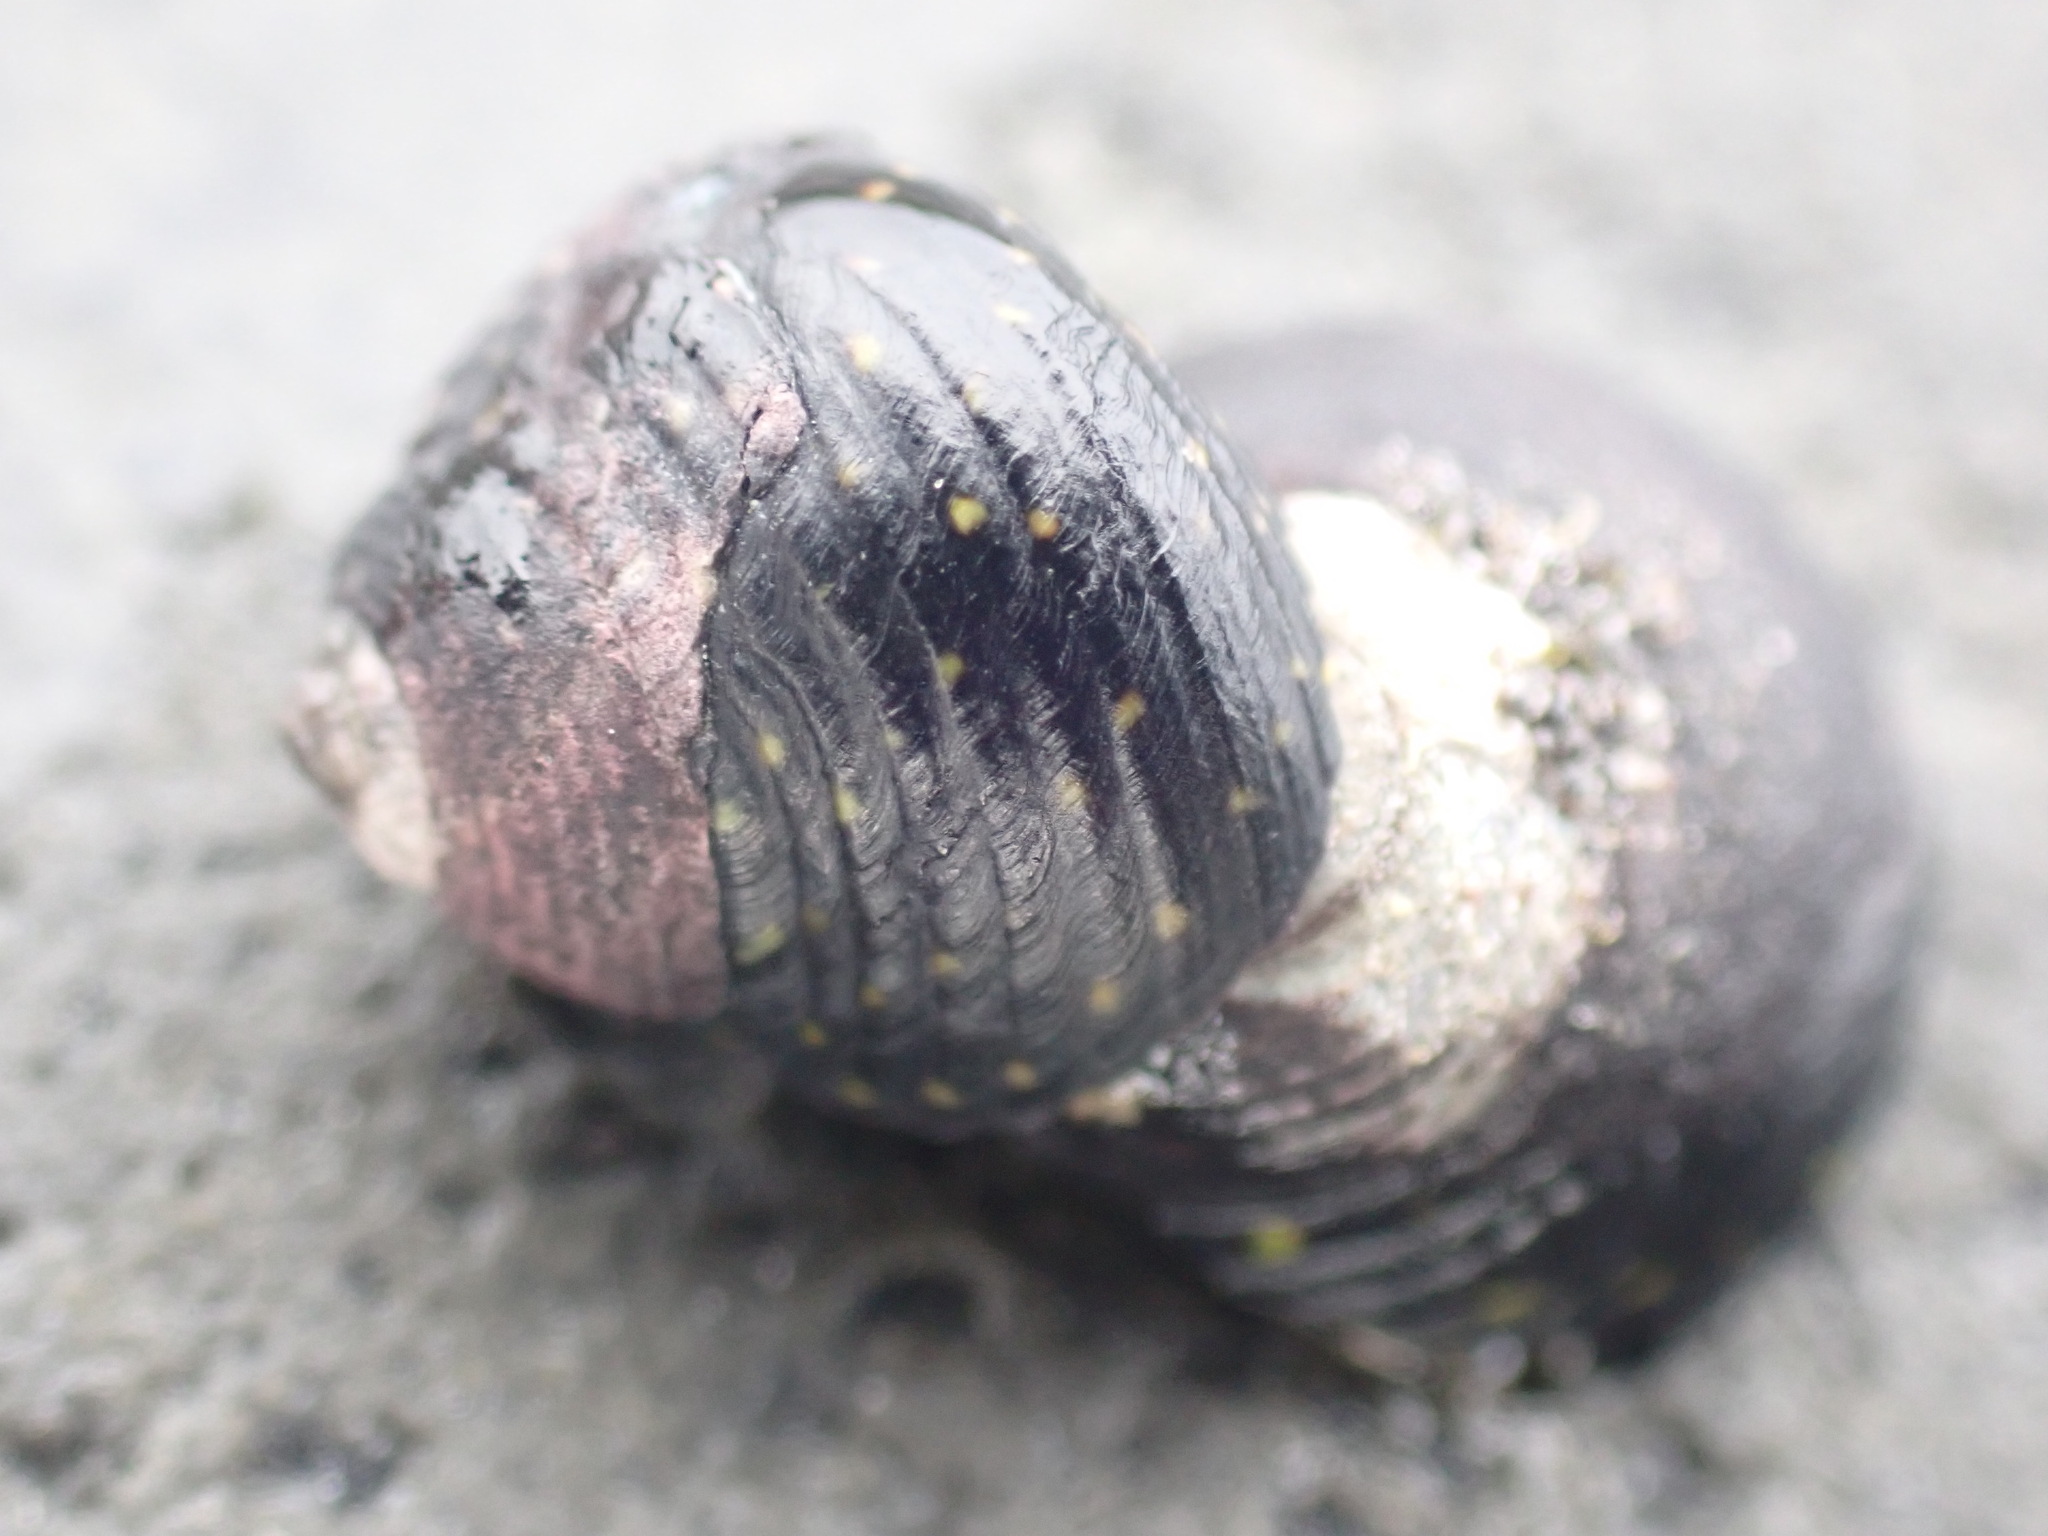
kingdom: Animalia
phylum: Mollusca
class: Gastropoda
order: Trochida
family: Trochidae
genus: Diloma
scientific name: Diloma aridum
